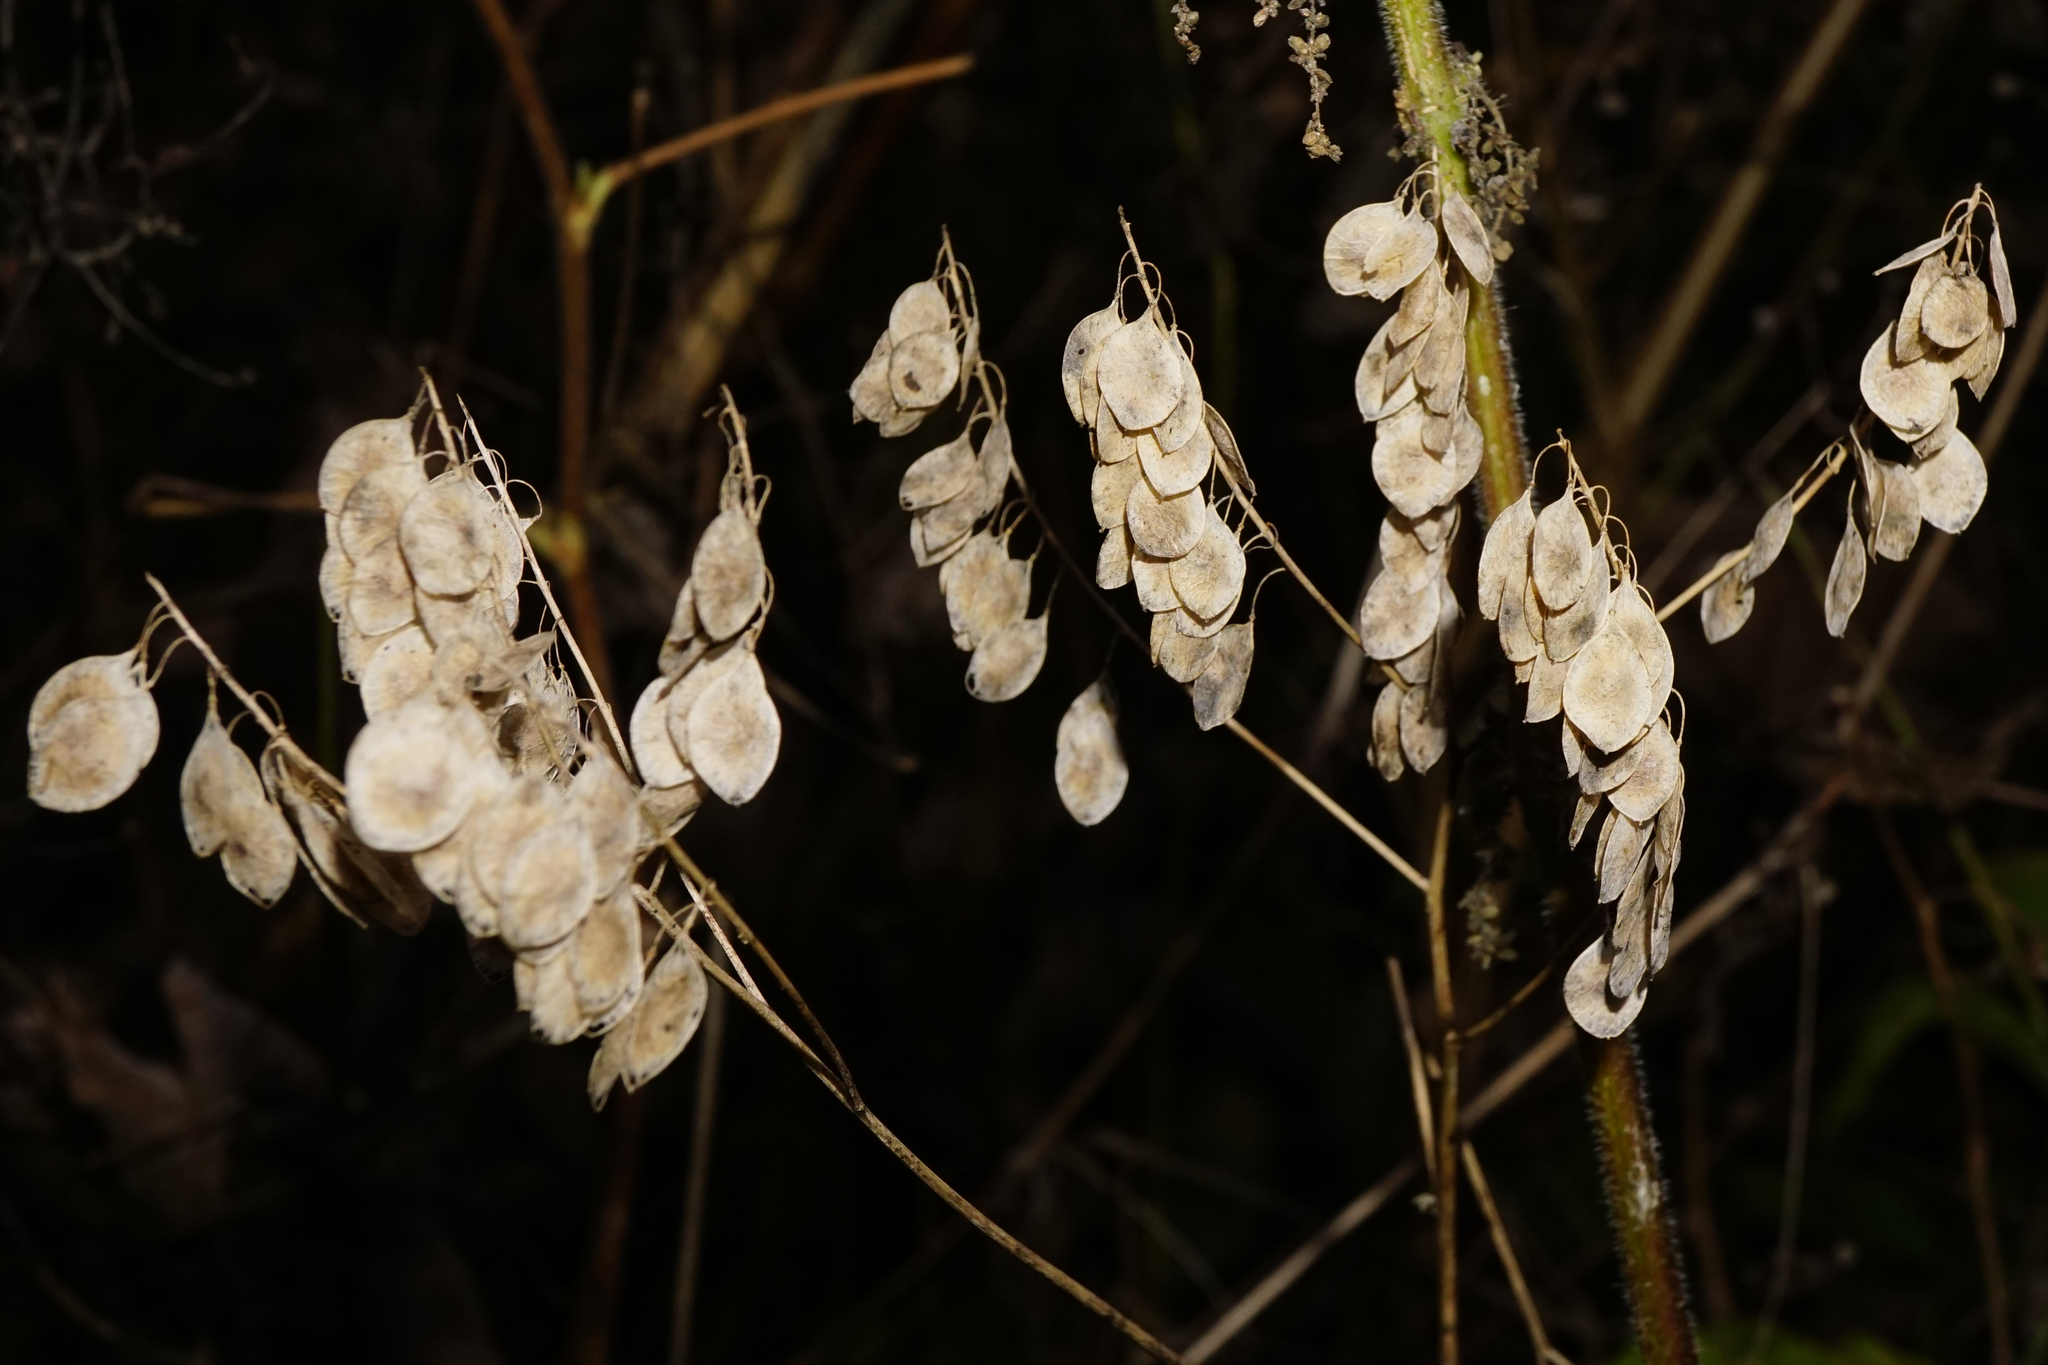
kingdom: Plantae
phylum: Tracheophyta
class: Magnoliopsida
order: Brassicales
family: Brassicaceae
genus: Peltaria
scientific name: Peltaria alliacea
